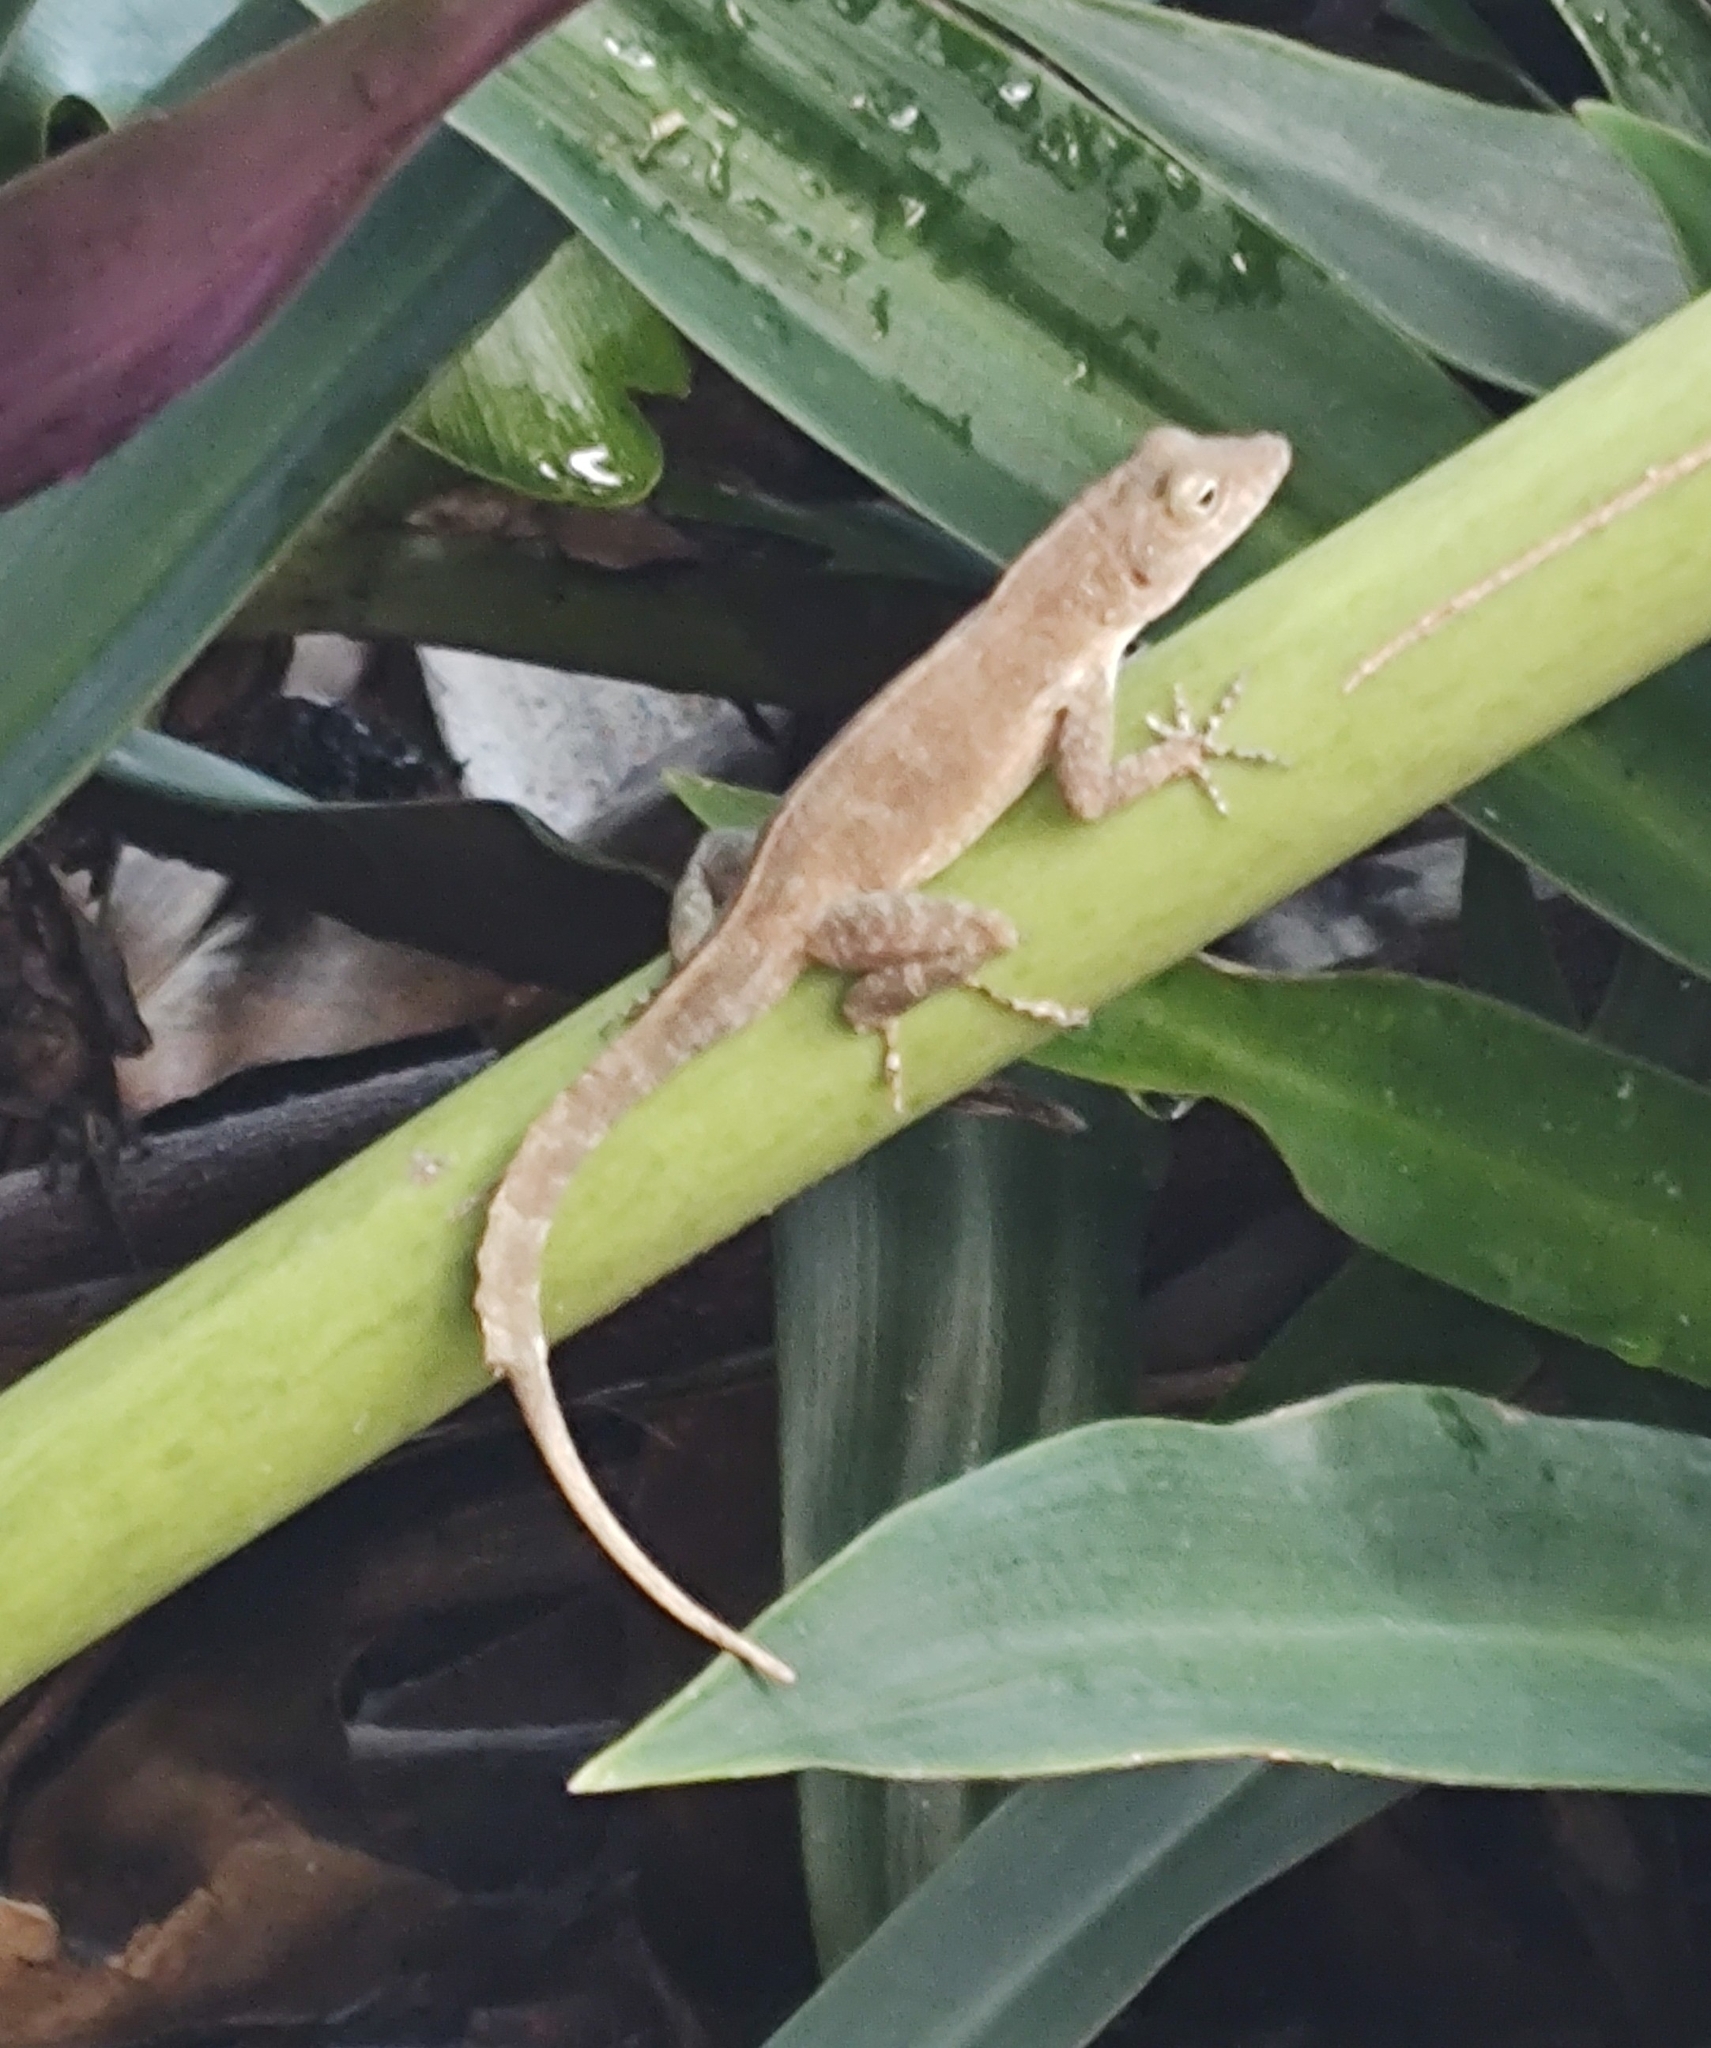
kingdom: Animalia
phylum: Chordata
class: Squamata
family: Dactyloidae
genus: Anolis
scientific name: Anolis cristatellus
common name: Crested anole
